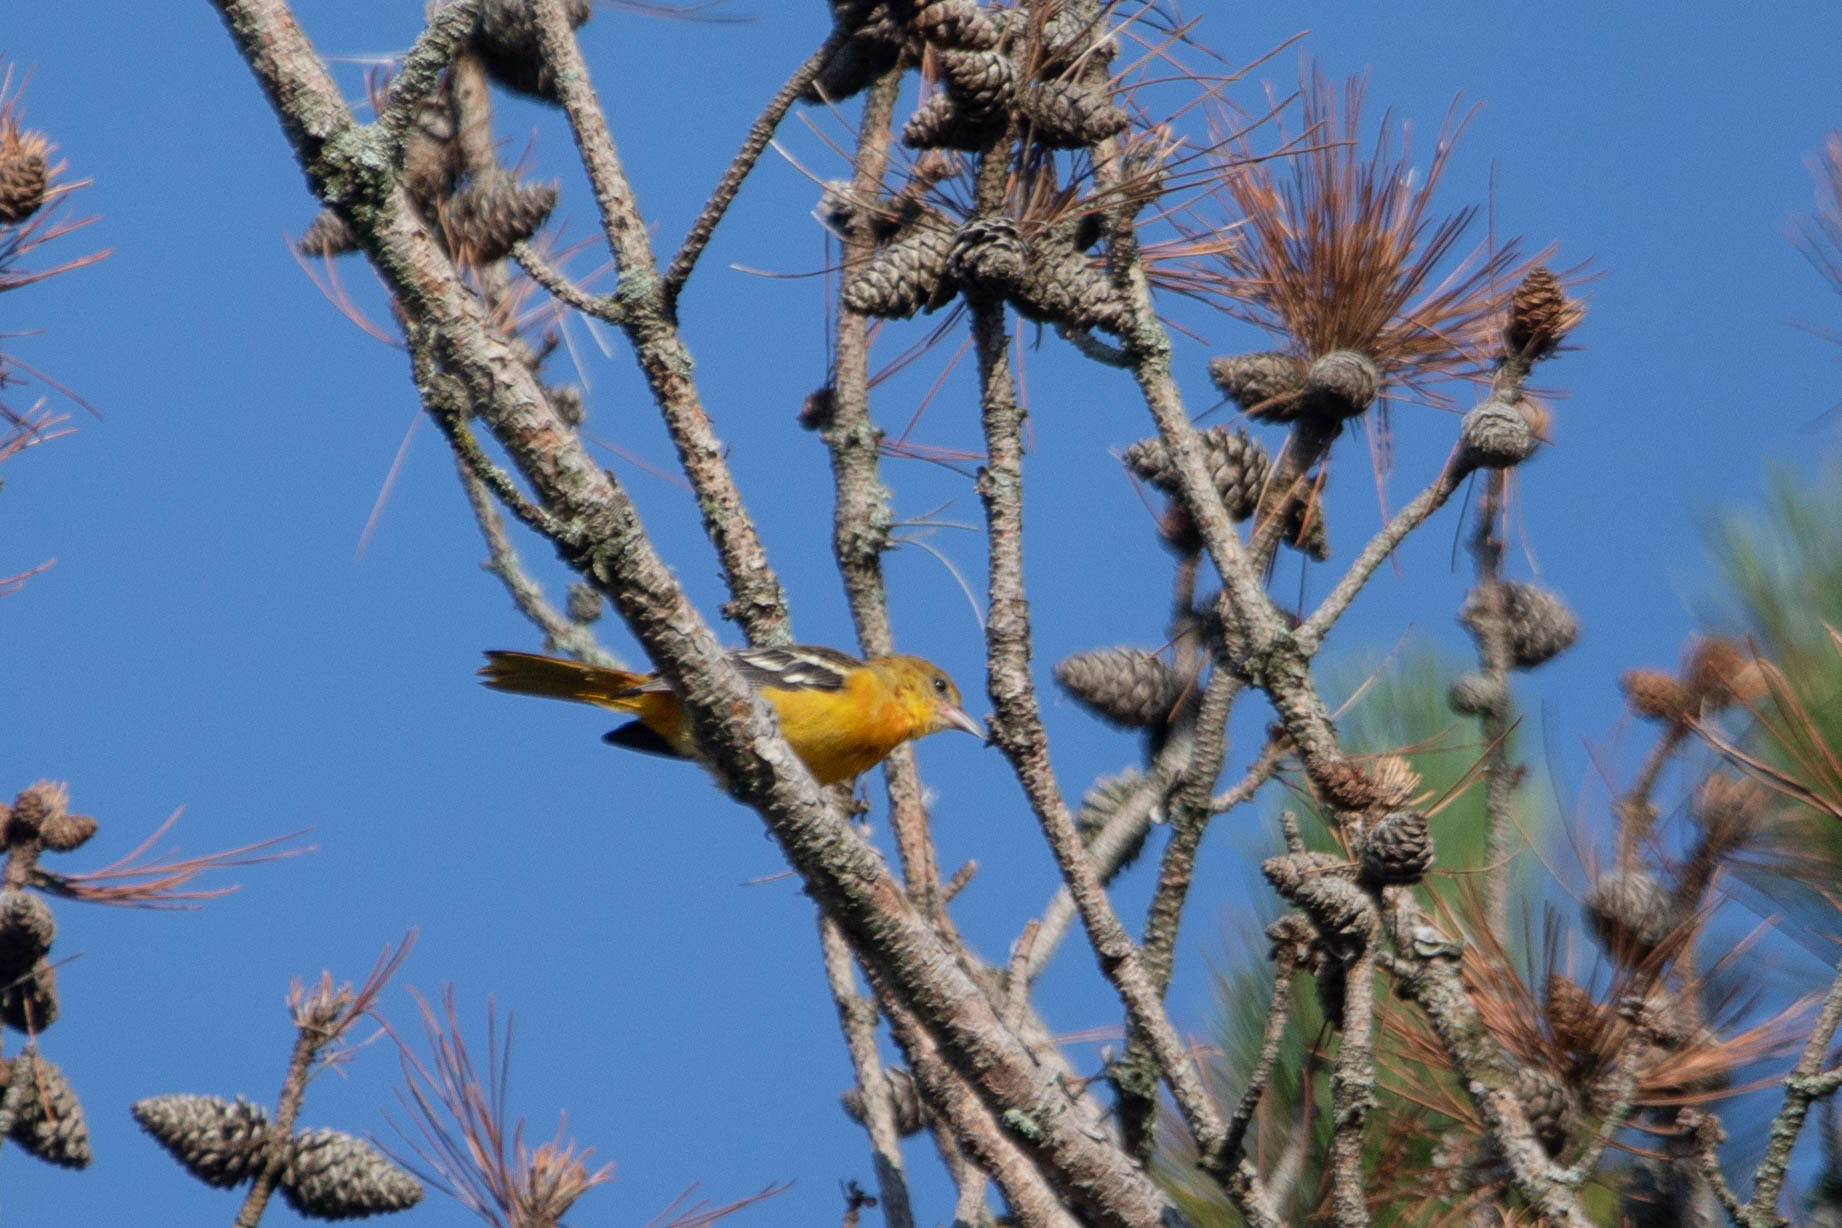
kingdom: Animalia
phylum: Chordata
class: Aves
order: Passeriformes
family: Icteridae
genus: Icterus
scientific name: Icterus galbula
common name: Baltimore oriole
